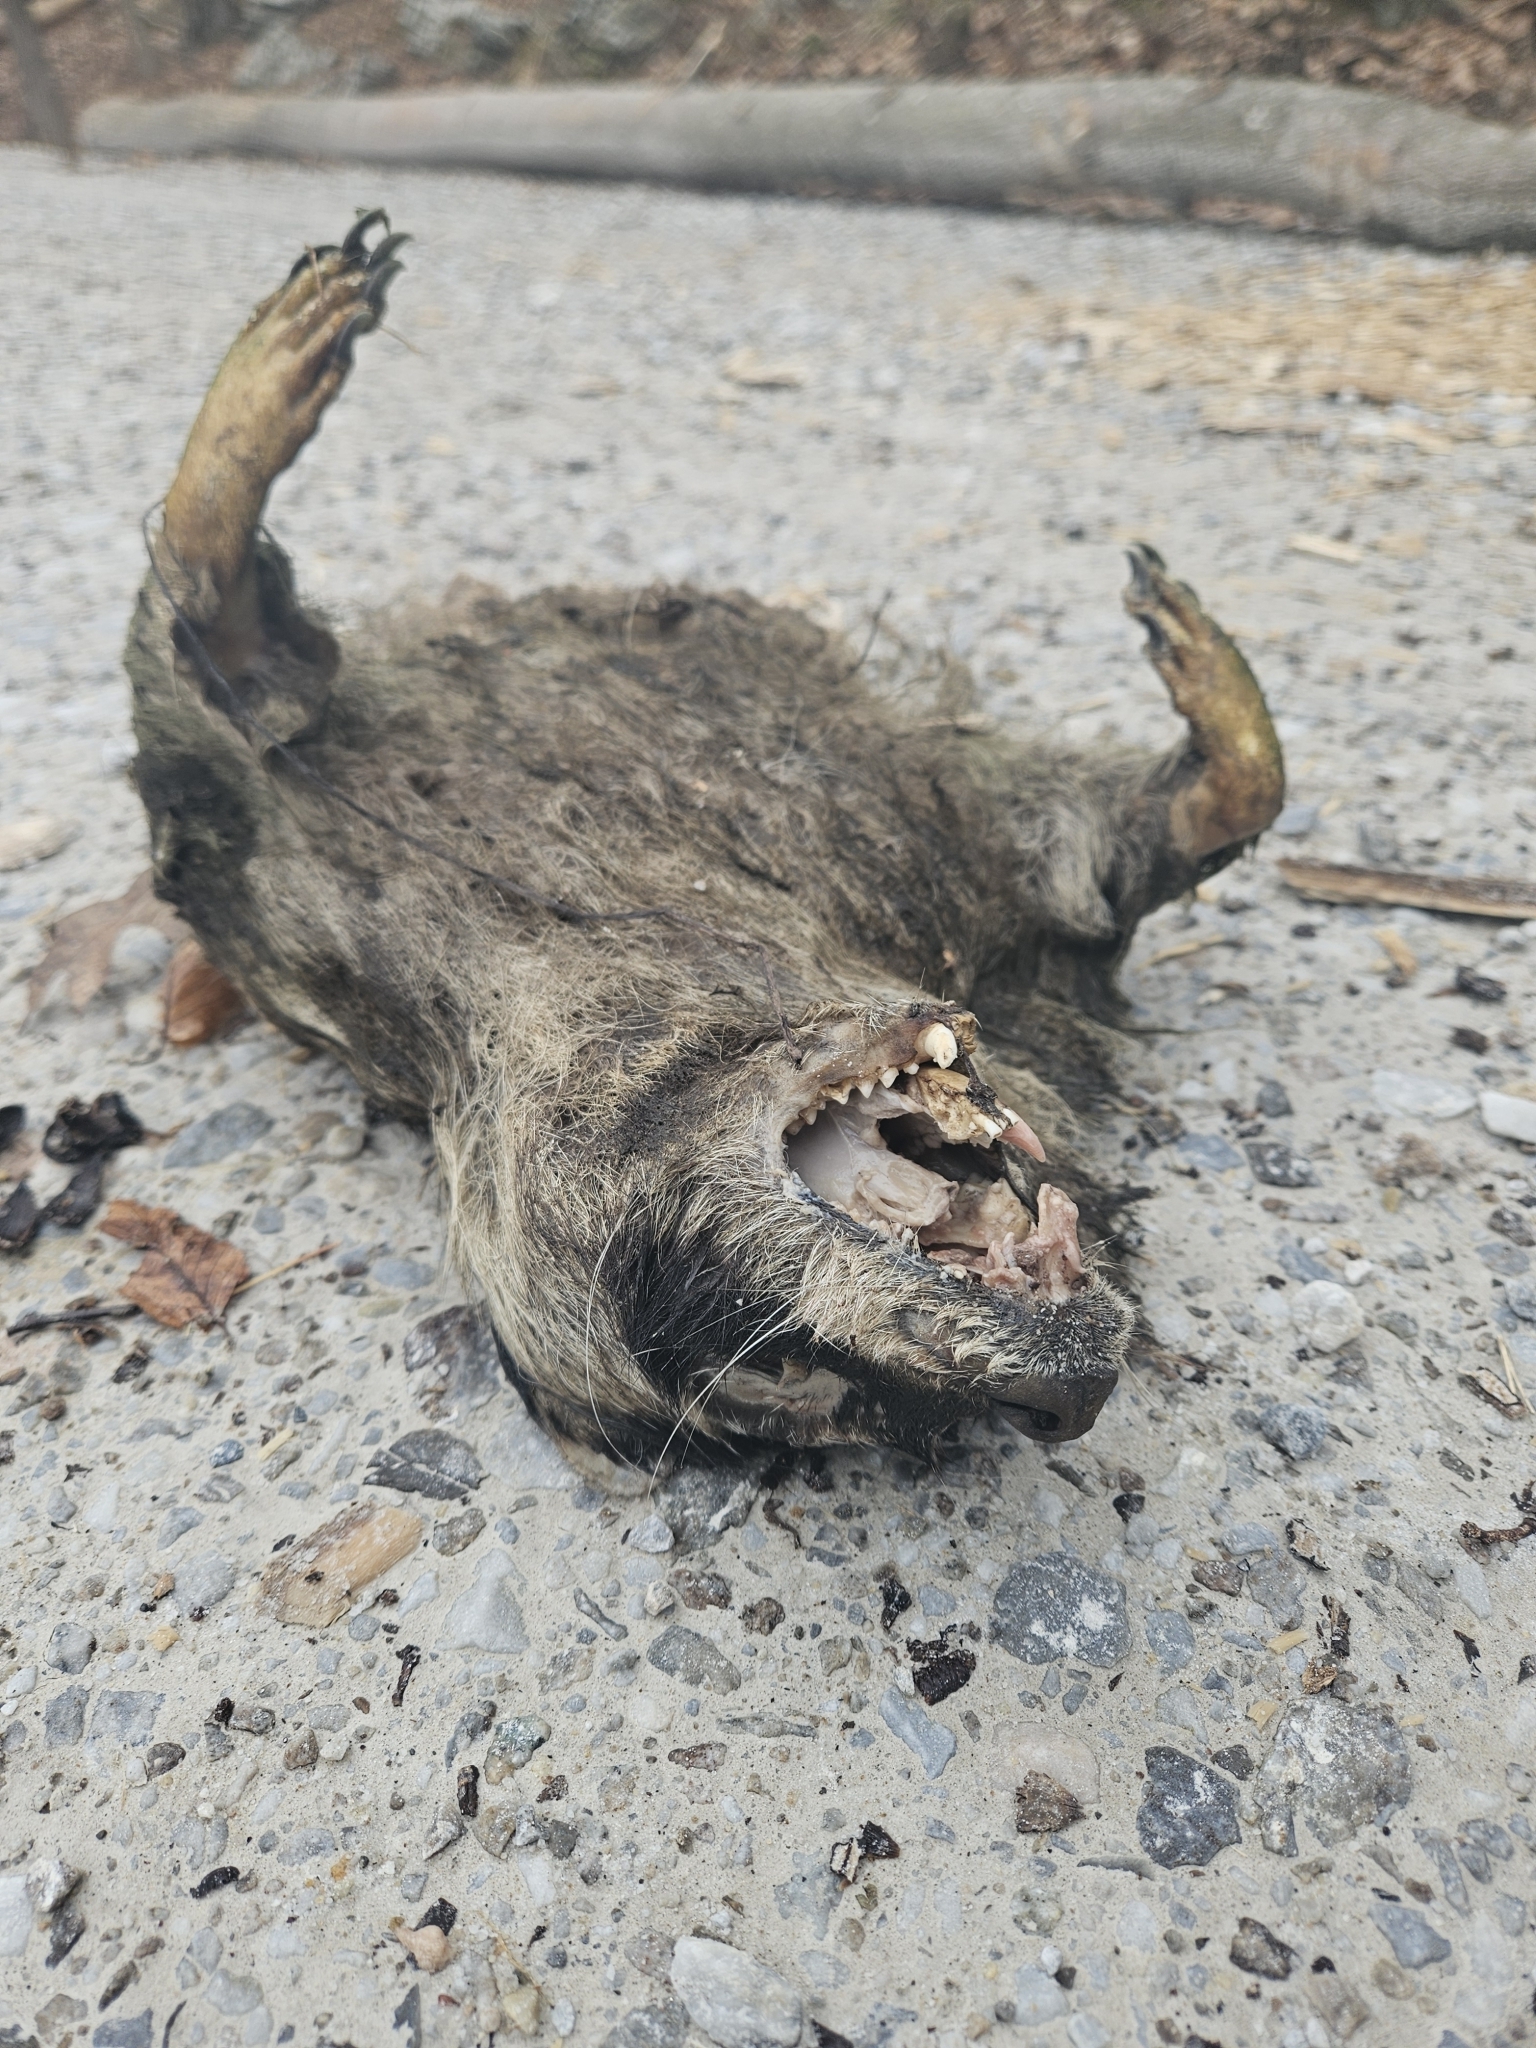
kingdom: Animalia
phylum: Chordata
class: Mammalia
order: Carnivora
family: Procyonidae
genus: Procyon
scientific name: Procyon lotor
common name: Raccoon
